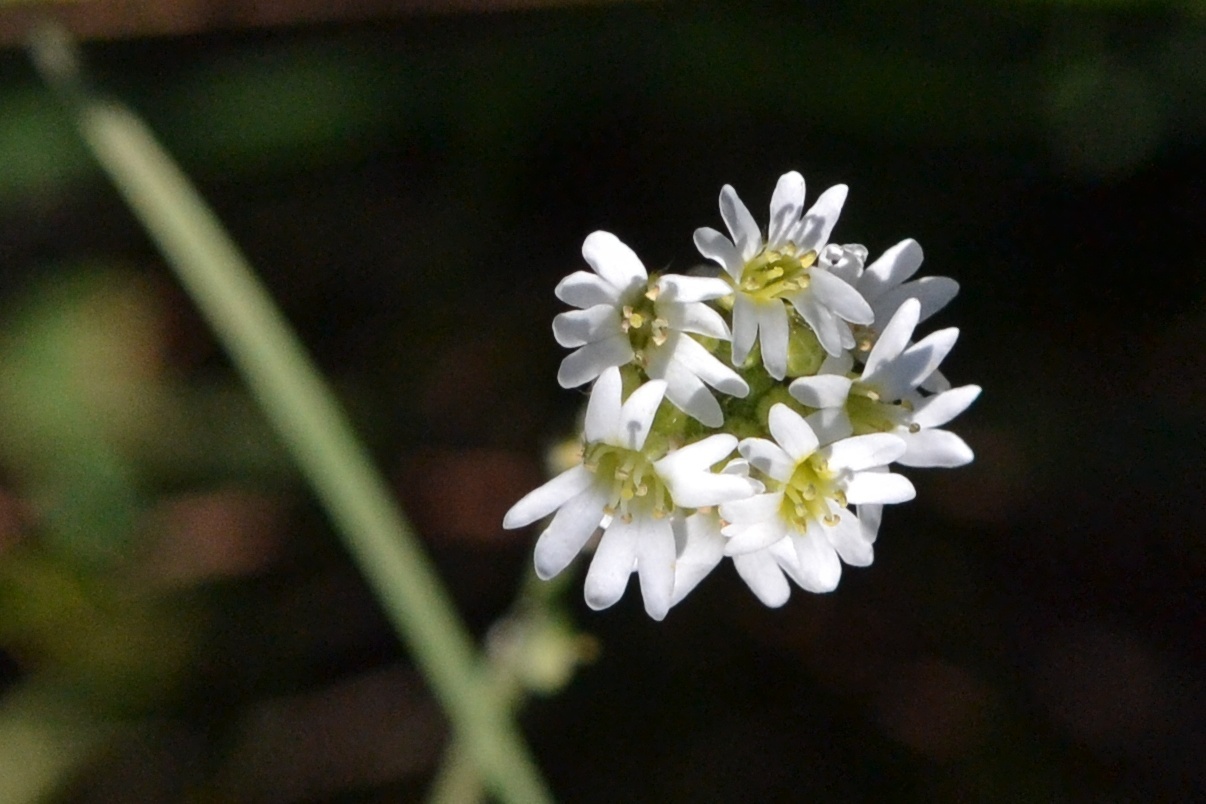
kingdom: Plantae
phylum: Tracheophyta
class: Magnoliopsida
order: Brassicales
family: Brassicaceae
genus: Berteroa
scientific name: Berteroa incana
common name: Hoary alison
